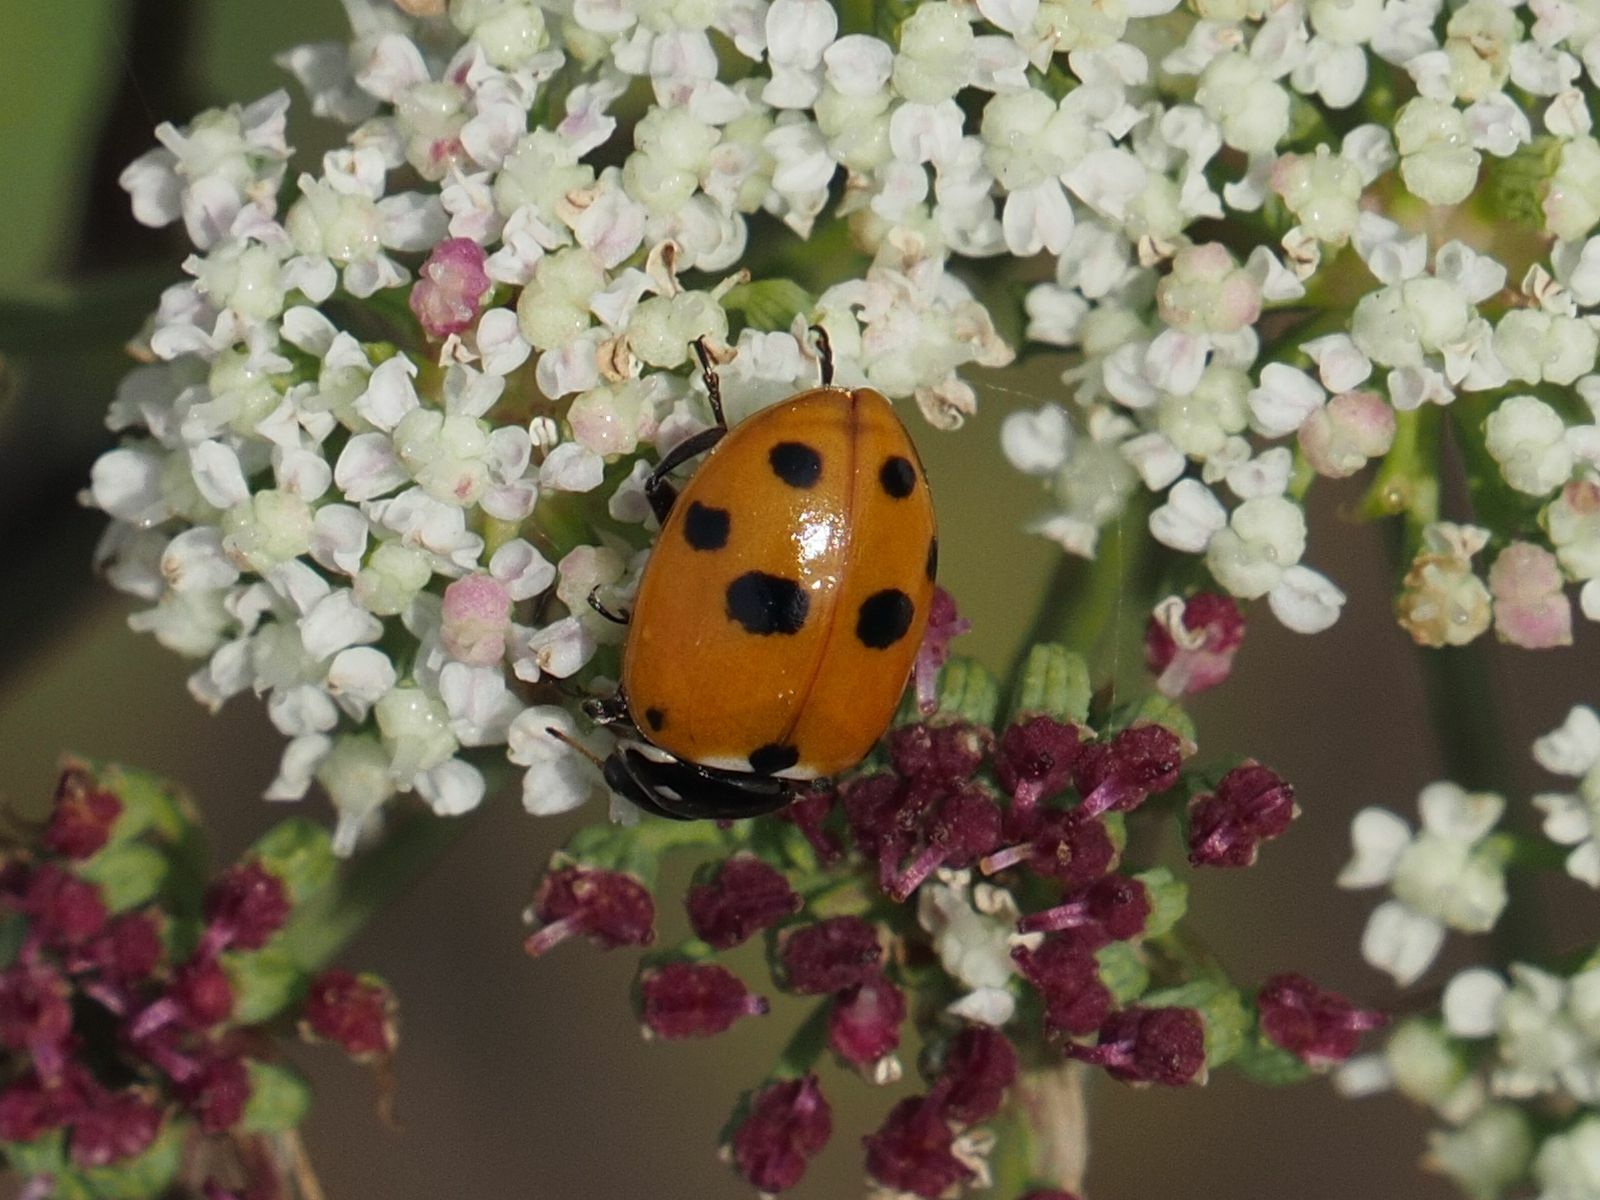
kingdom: Animalia
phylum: Arthropoda
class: Insecta
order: Coleoptera
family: Coccinellidae
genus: Hippodamia
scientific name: Hippodamia variegata
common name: Ladybird beetle
